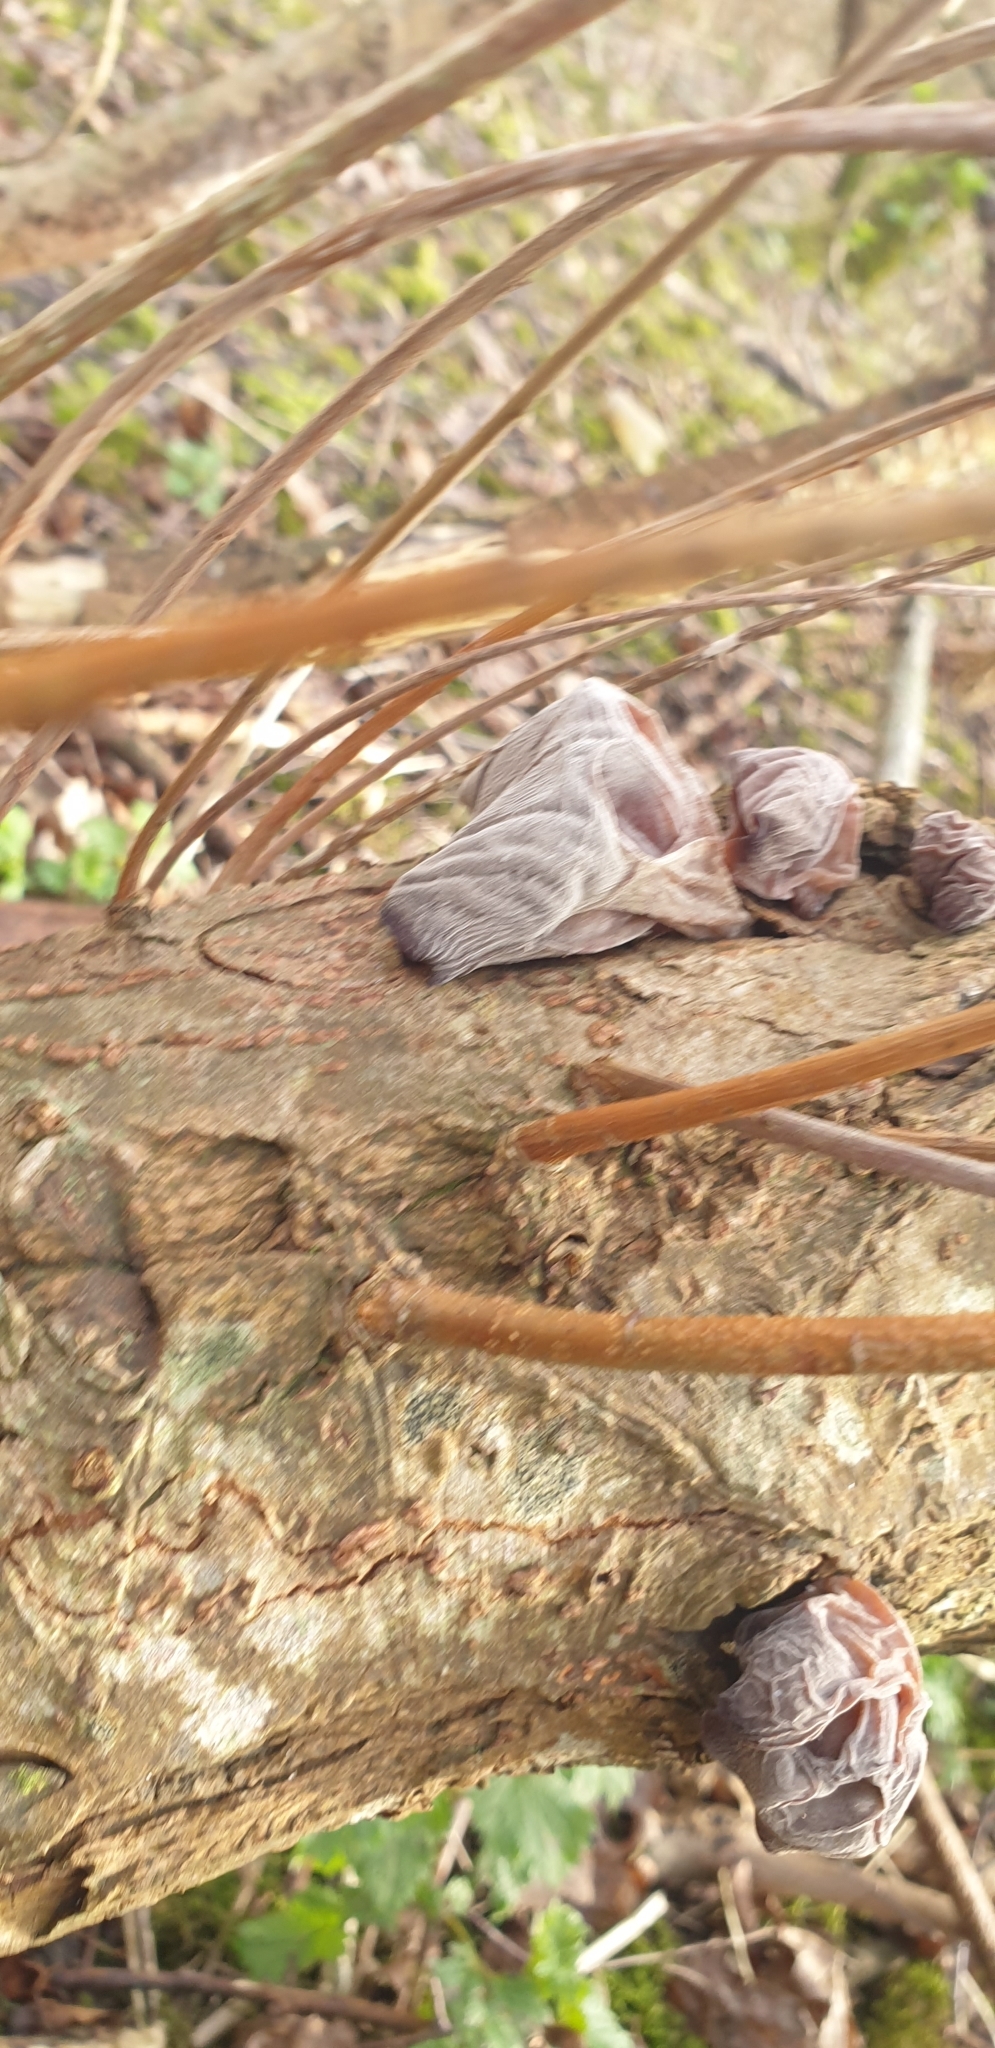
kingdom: Fungi
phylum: Basidiomycota
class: Agaricomycetes
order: Auriculariales
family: Auriculariaceae
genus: Auricularia
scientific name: Auricularia auricula-judae
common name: Jelly ear
